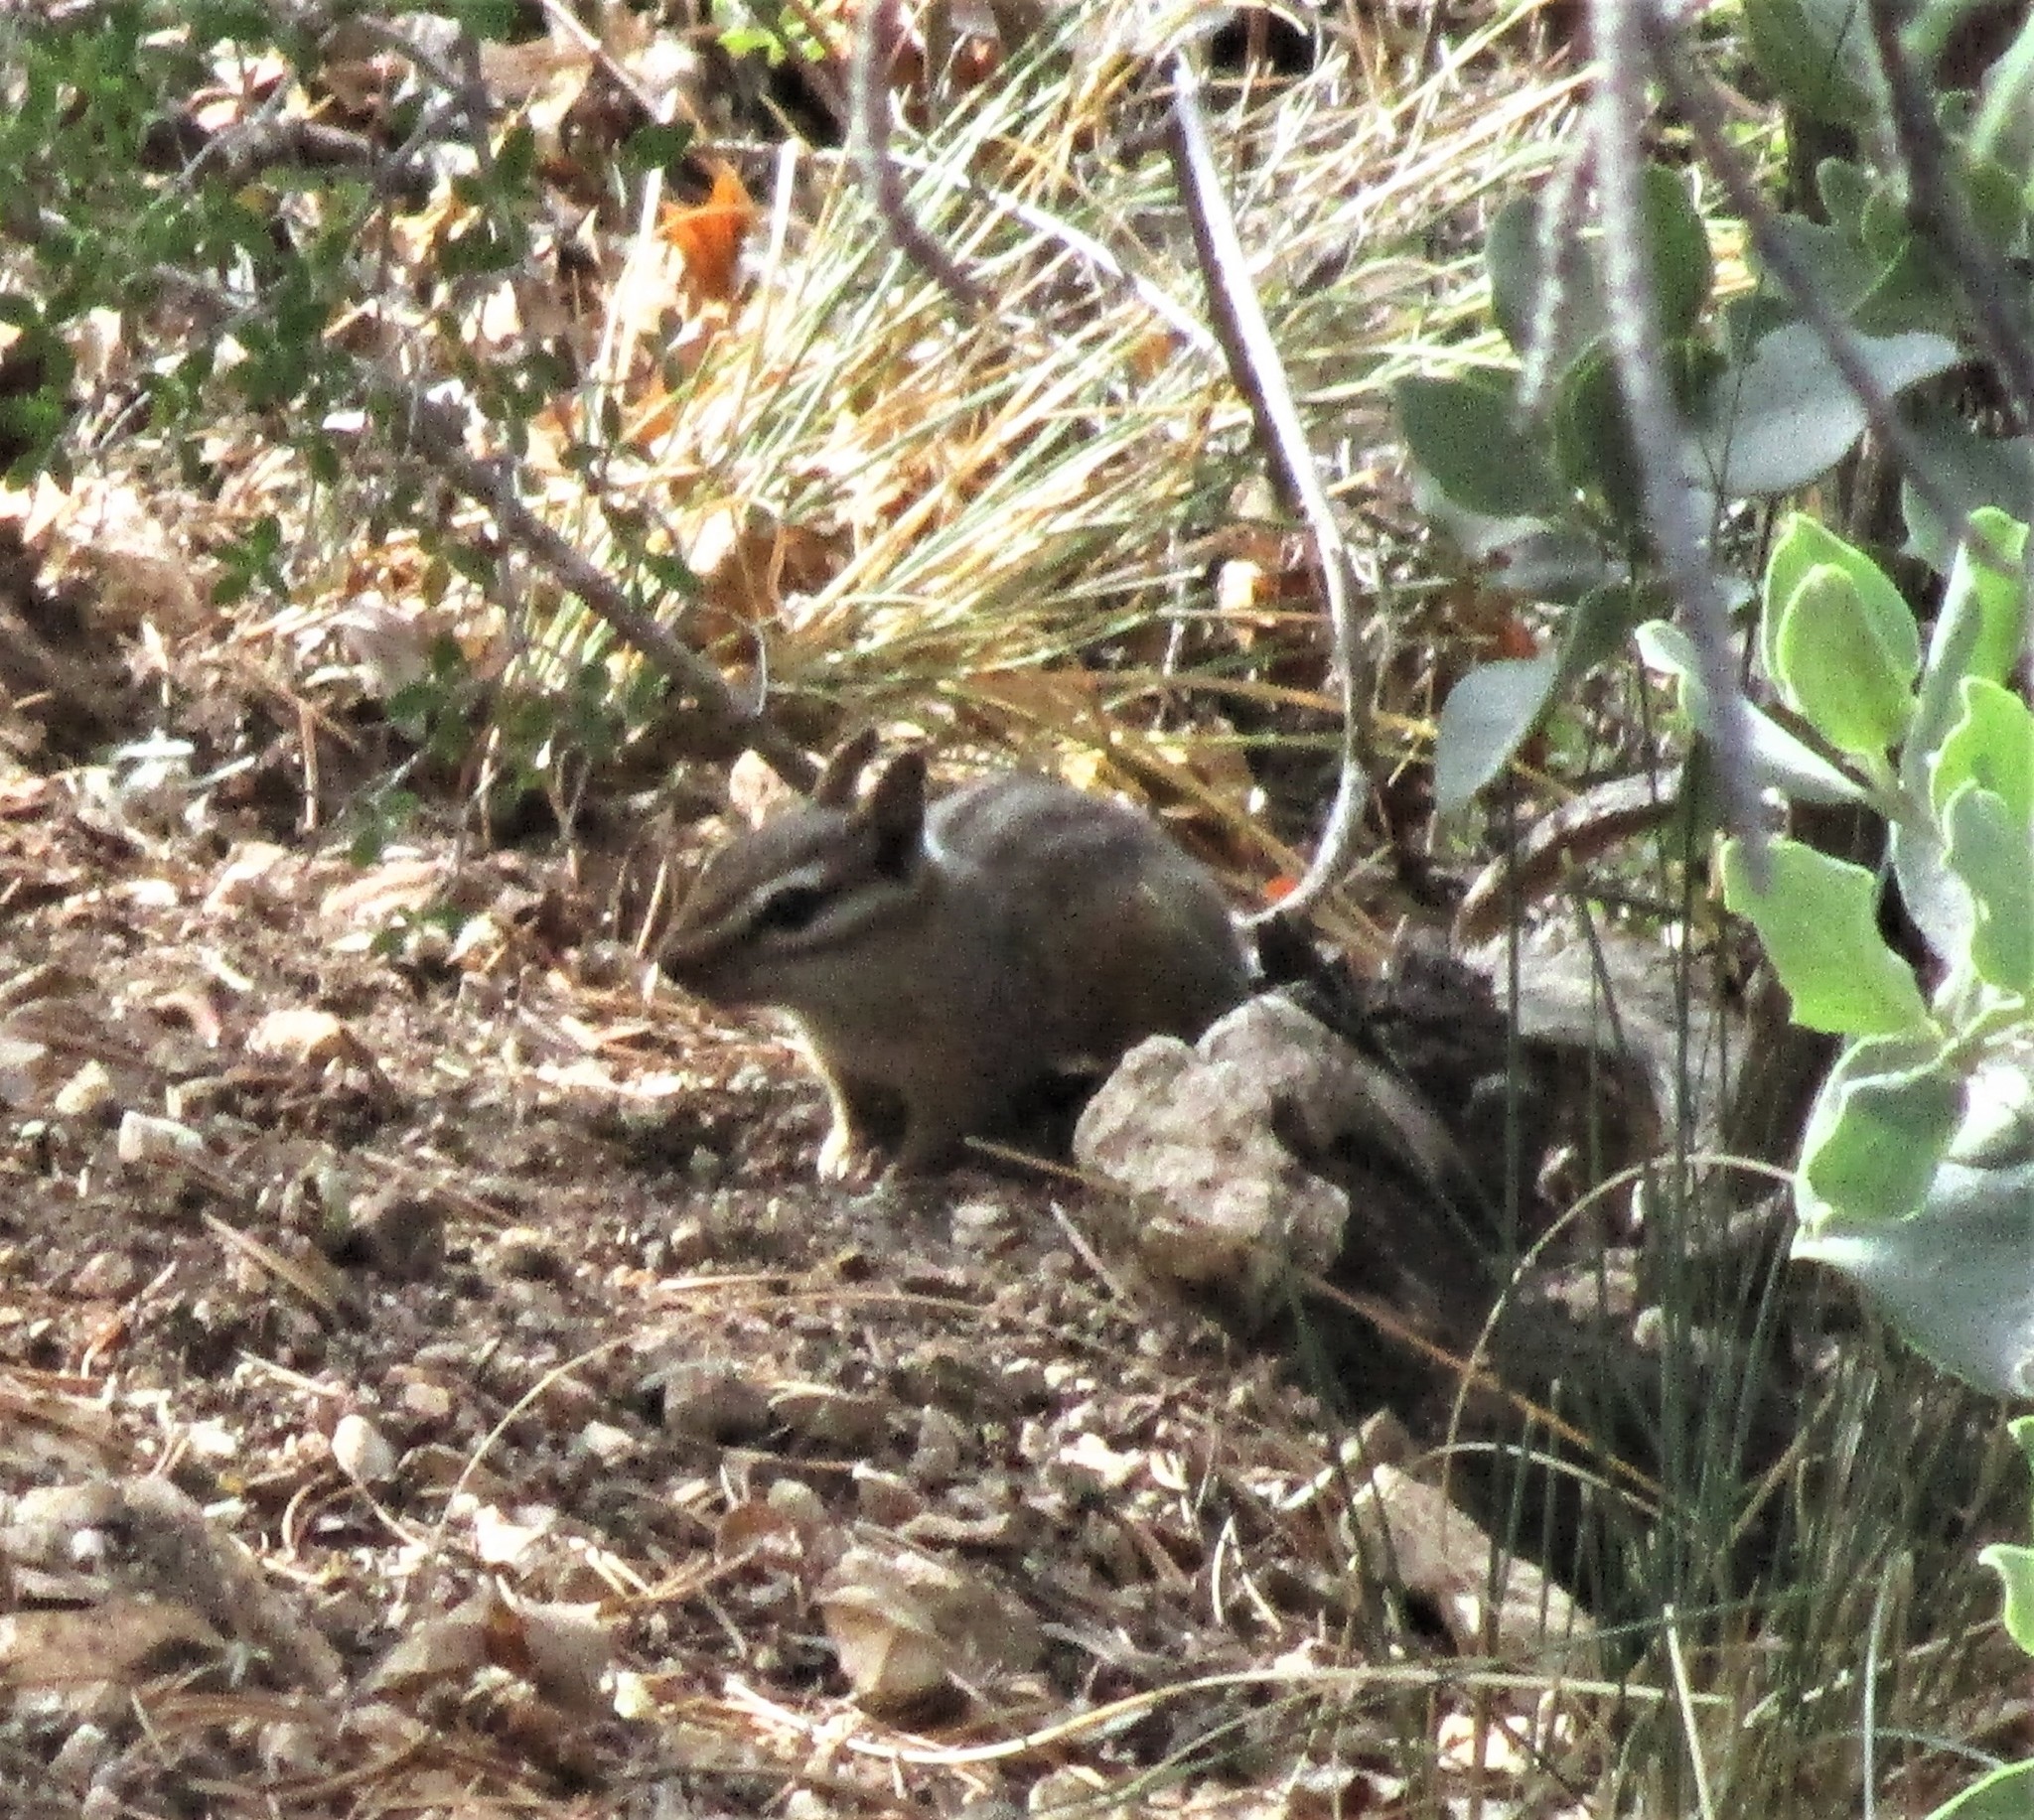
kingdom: Animalia
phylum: Chordata
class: Mammalia
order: Rodentia
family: Sciuridae
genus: Tamias
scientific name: Tamias dorsalis
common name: Cliff chipmunk
